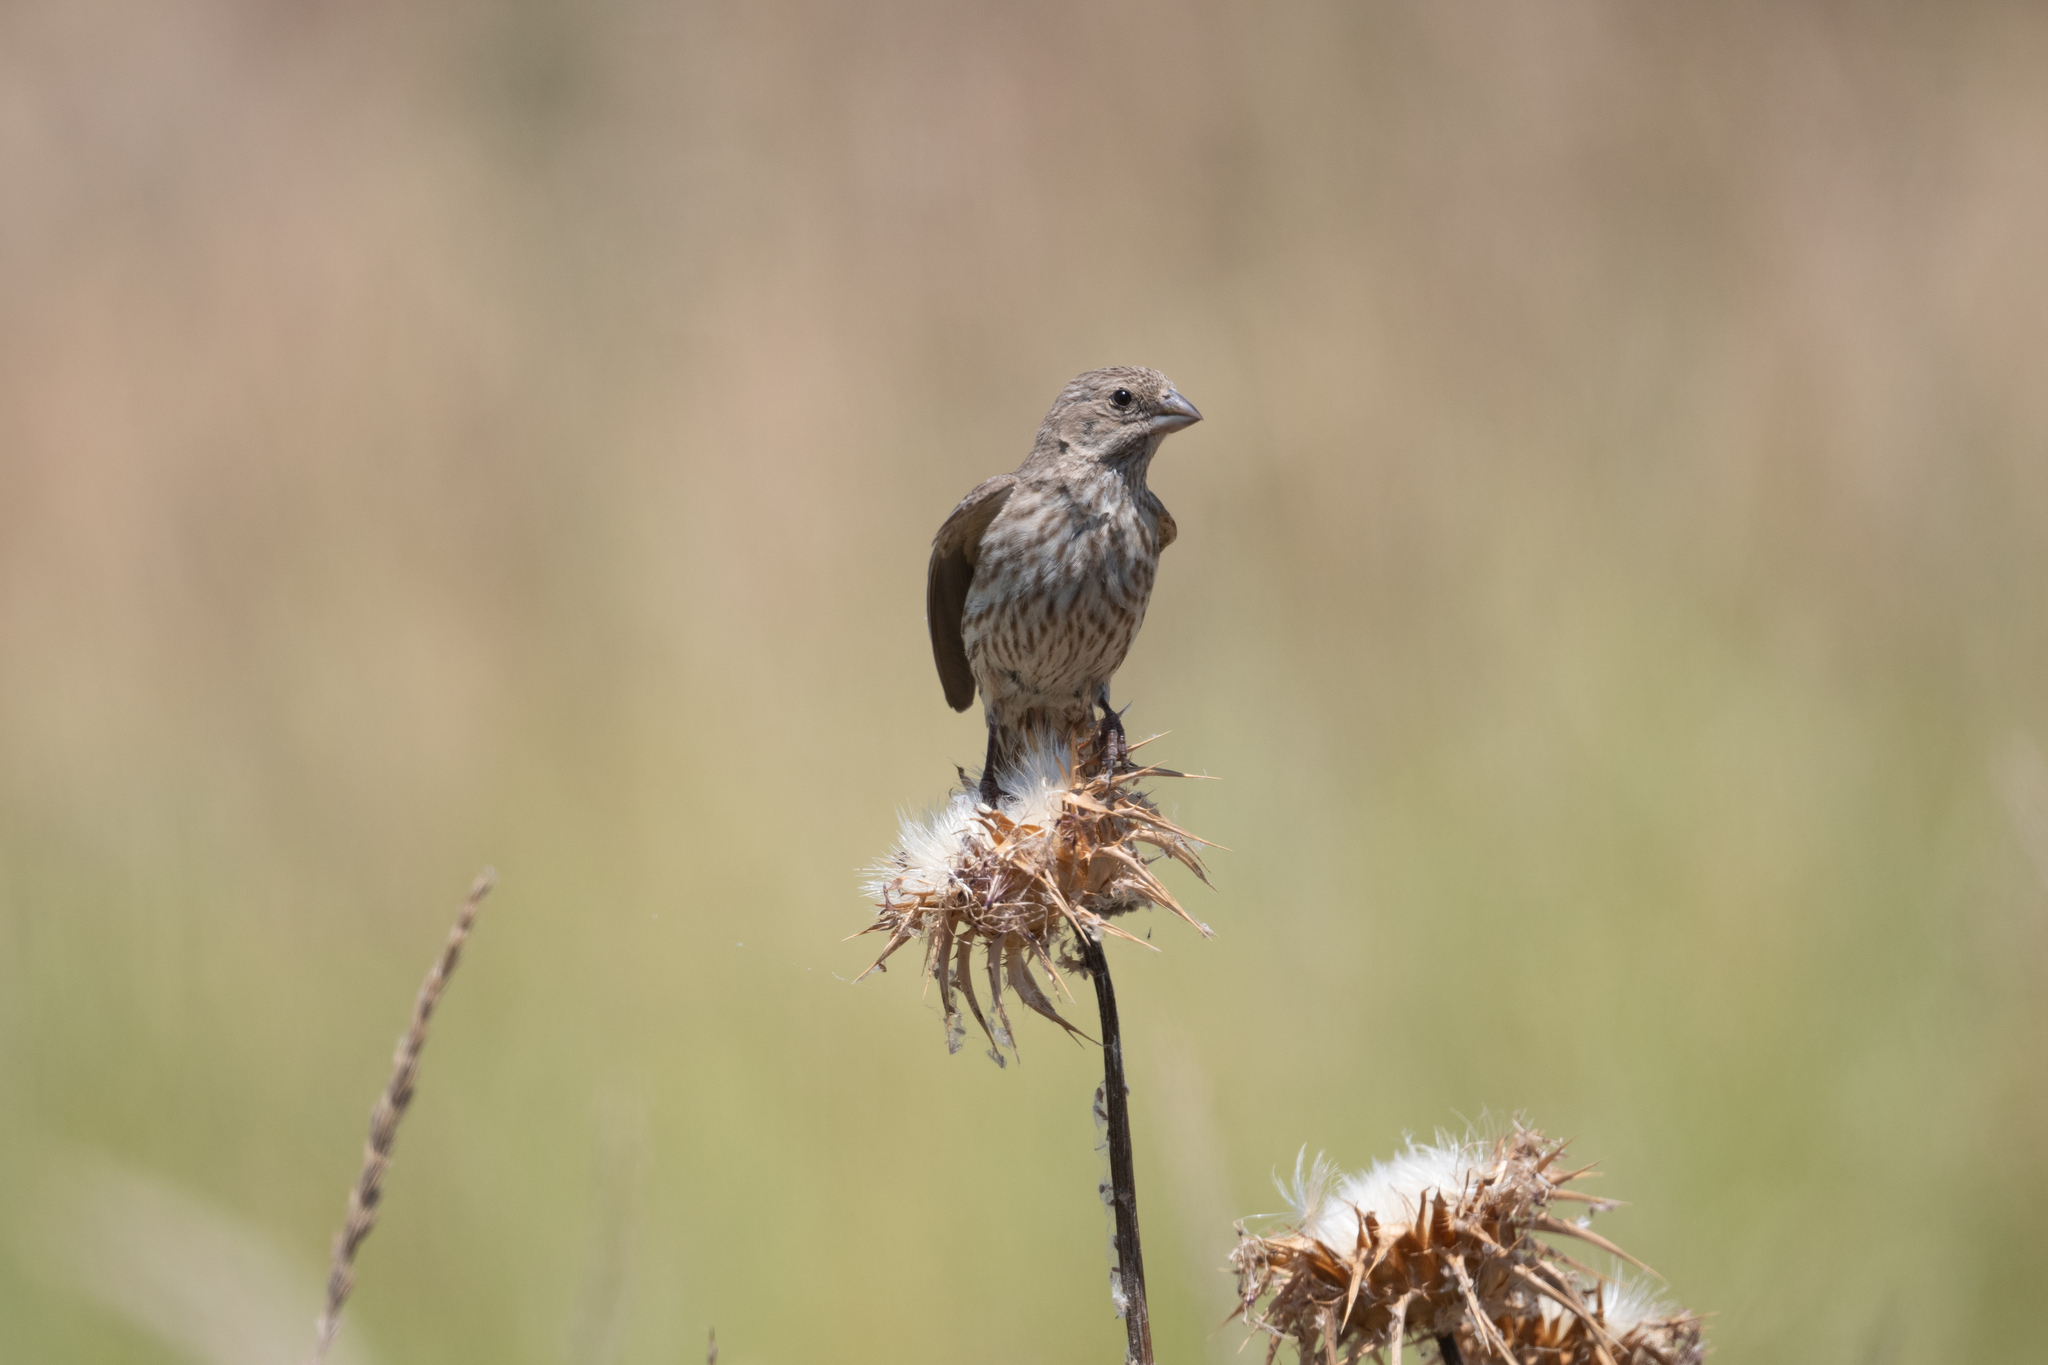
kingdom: Animalia
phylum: Chordata
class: Aves
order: Passeriformes
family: Fringillidae
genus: Haemorhous
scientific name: Haemorhous mexicanus
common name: House finch
